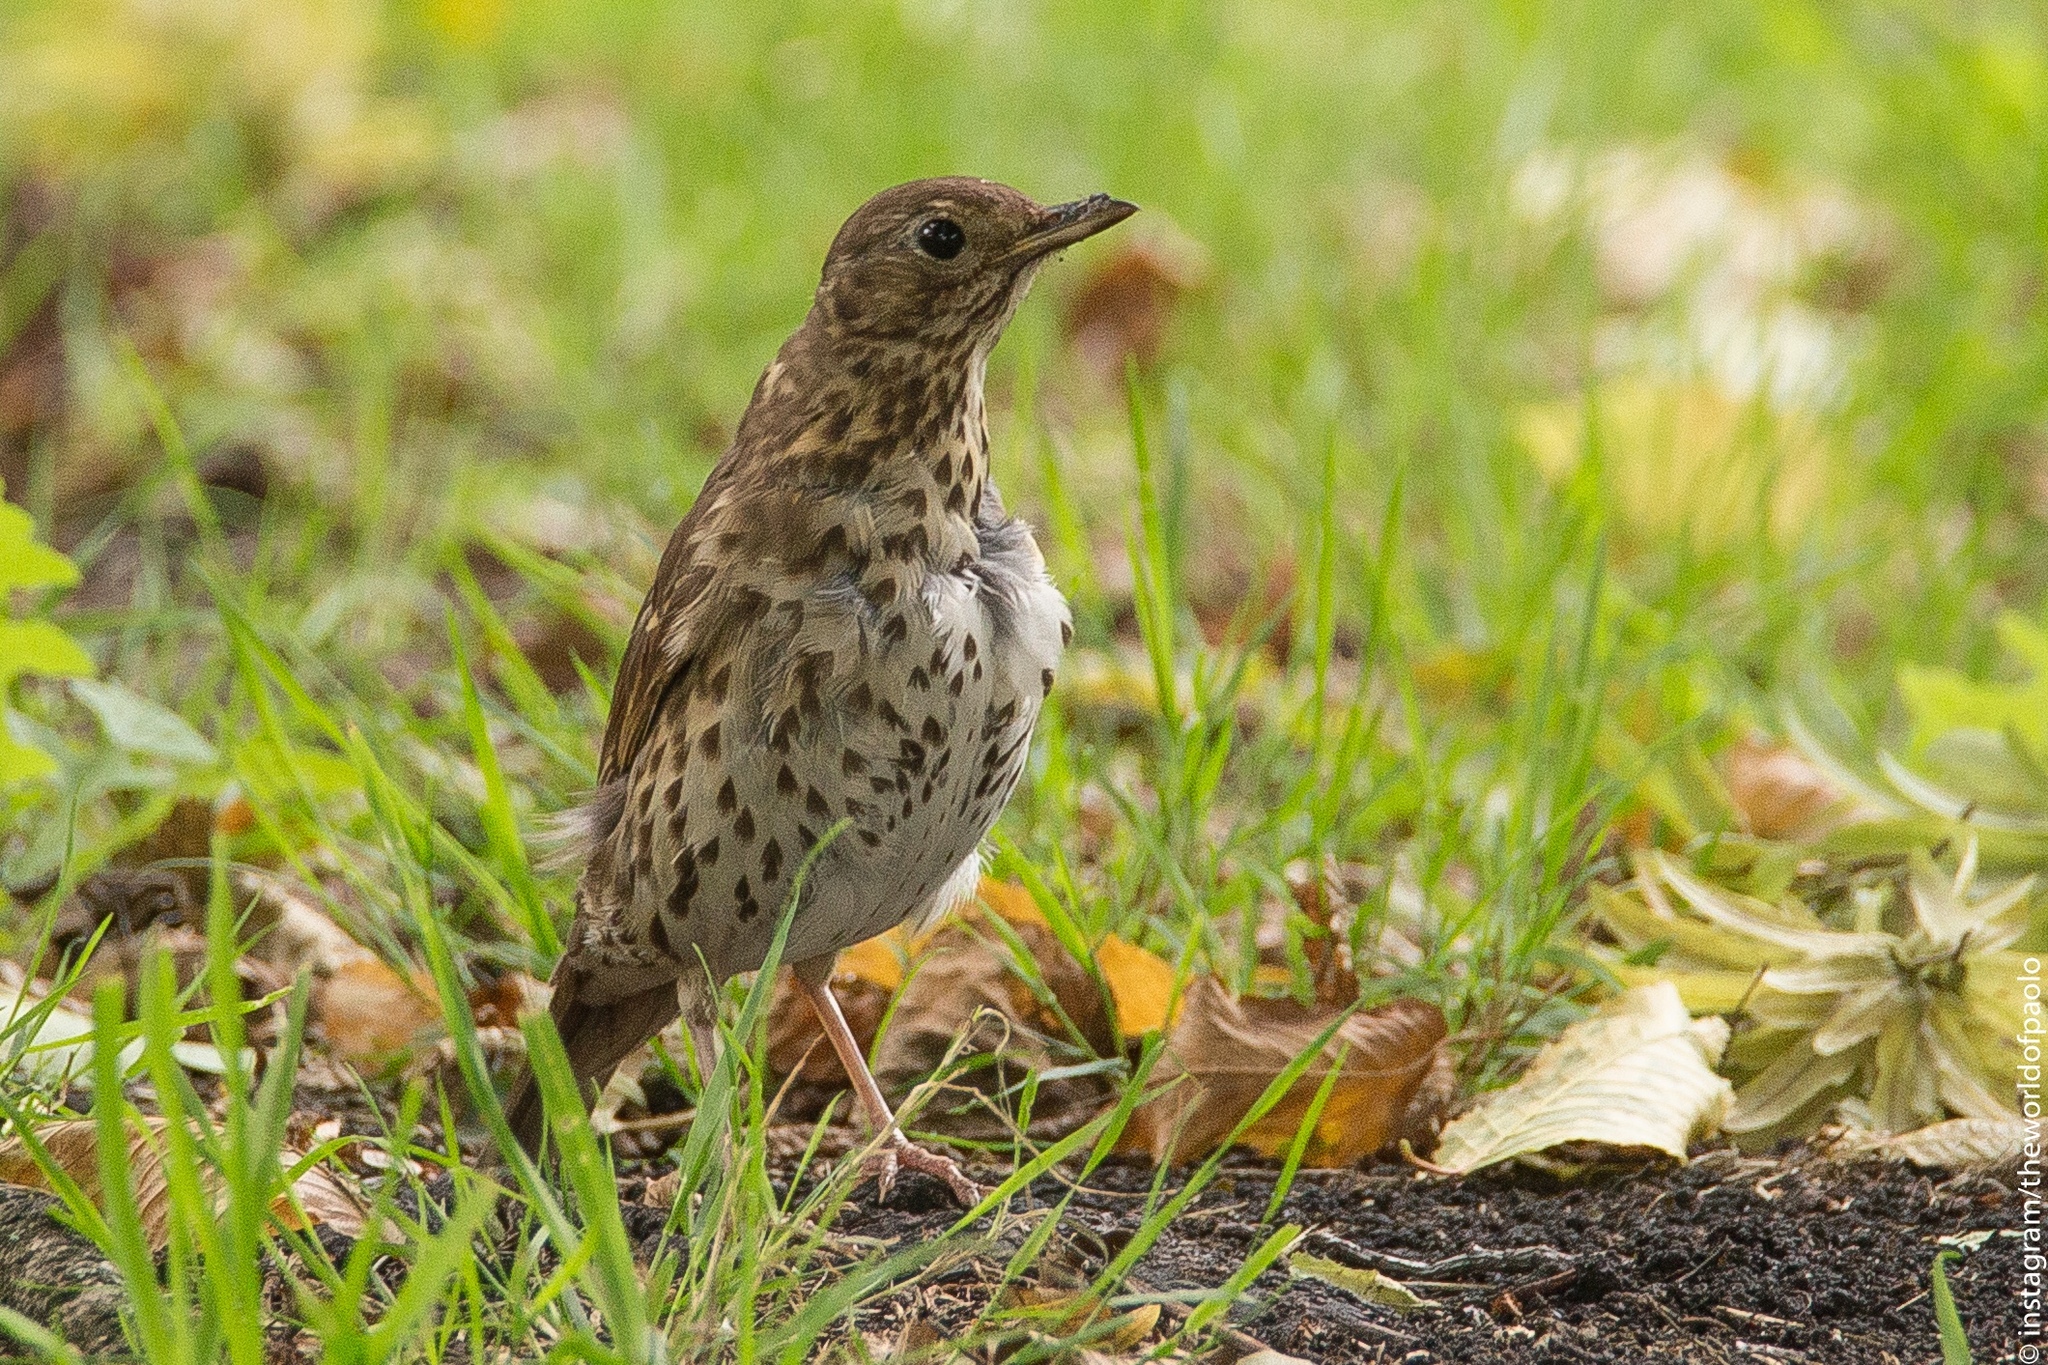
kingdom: Animalia
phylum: Chordata
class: Aves
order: Passeriformes
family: Turdidae
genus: Turdus
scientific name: Turdus philomelos
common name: Song thrush
